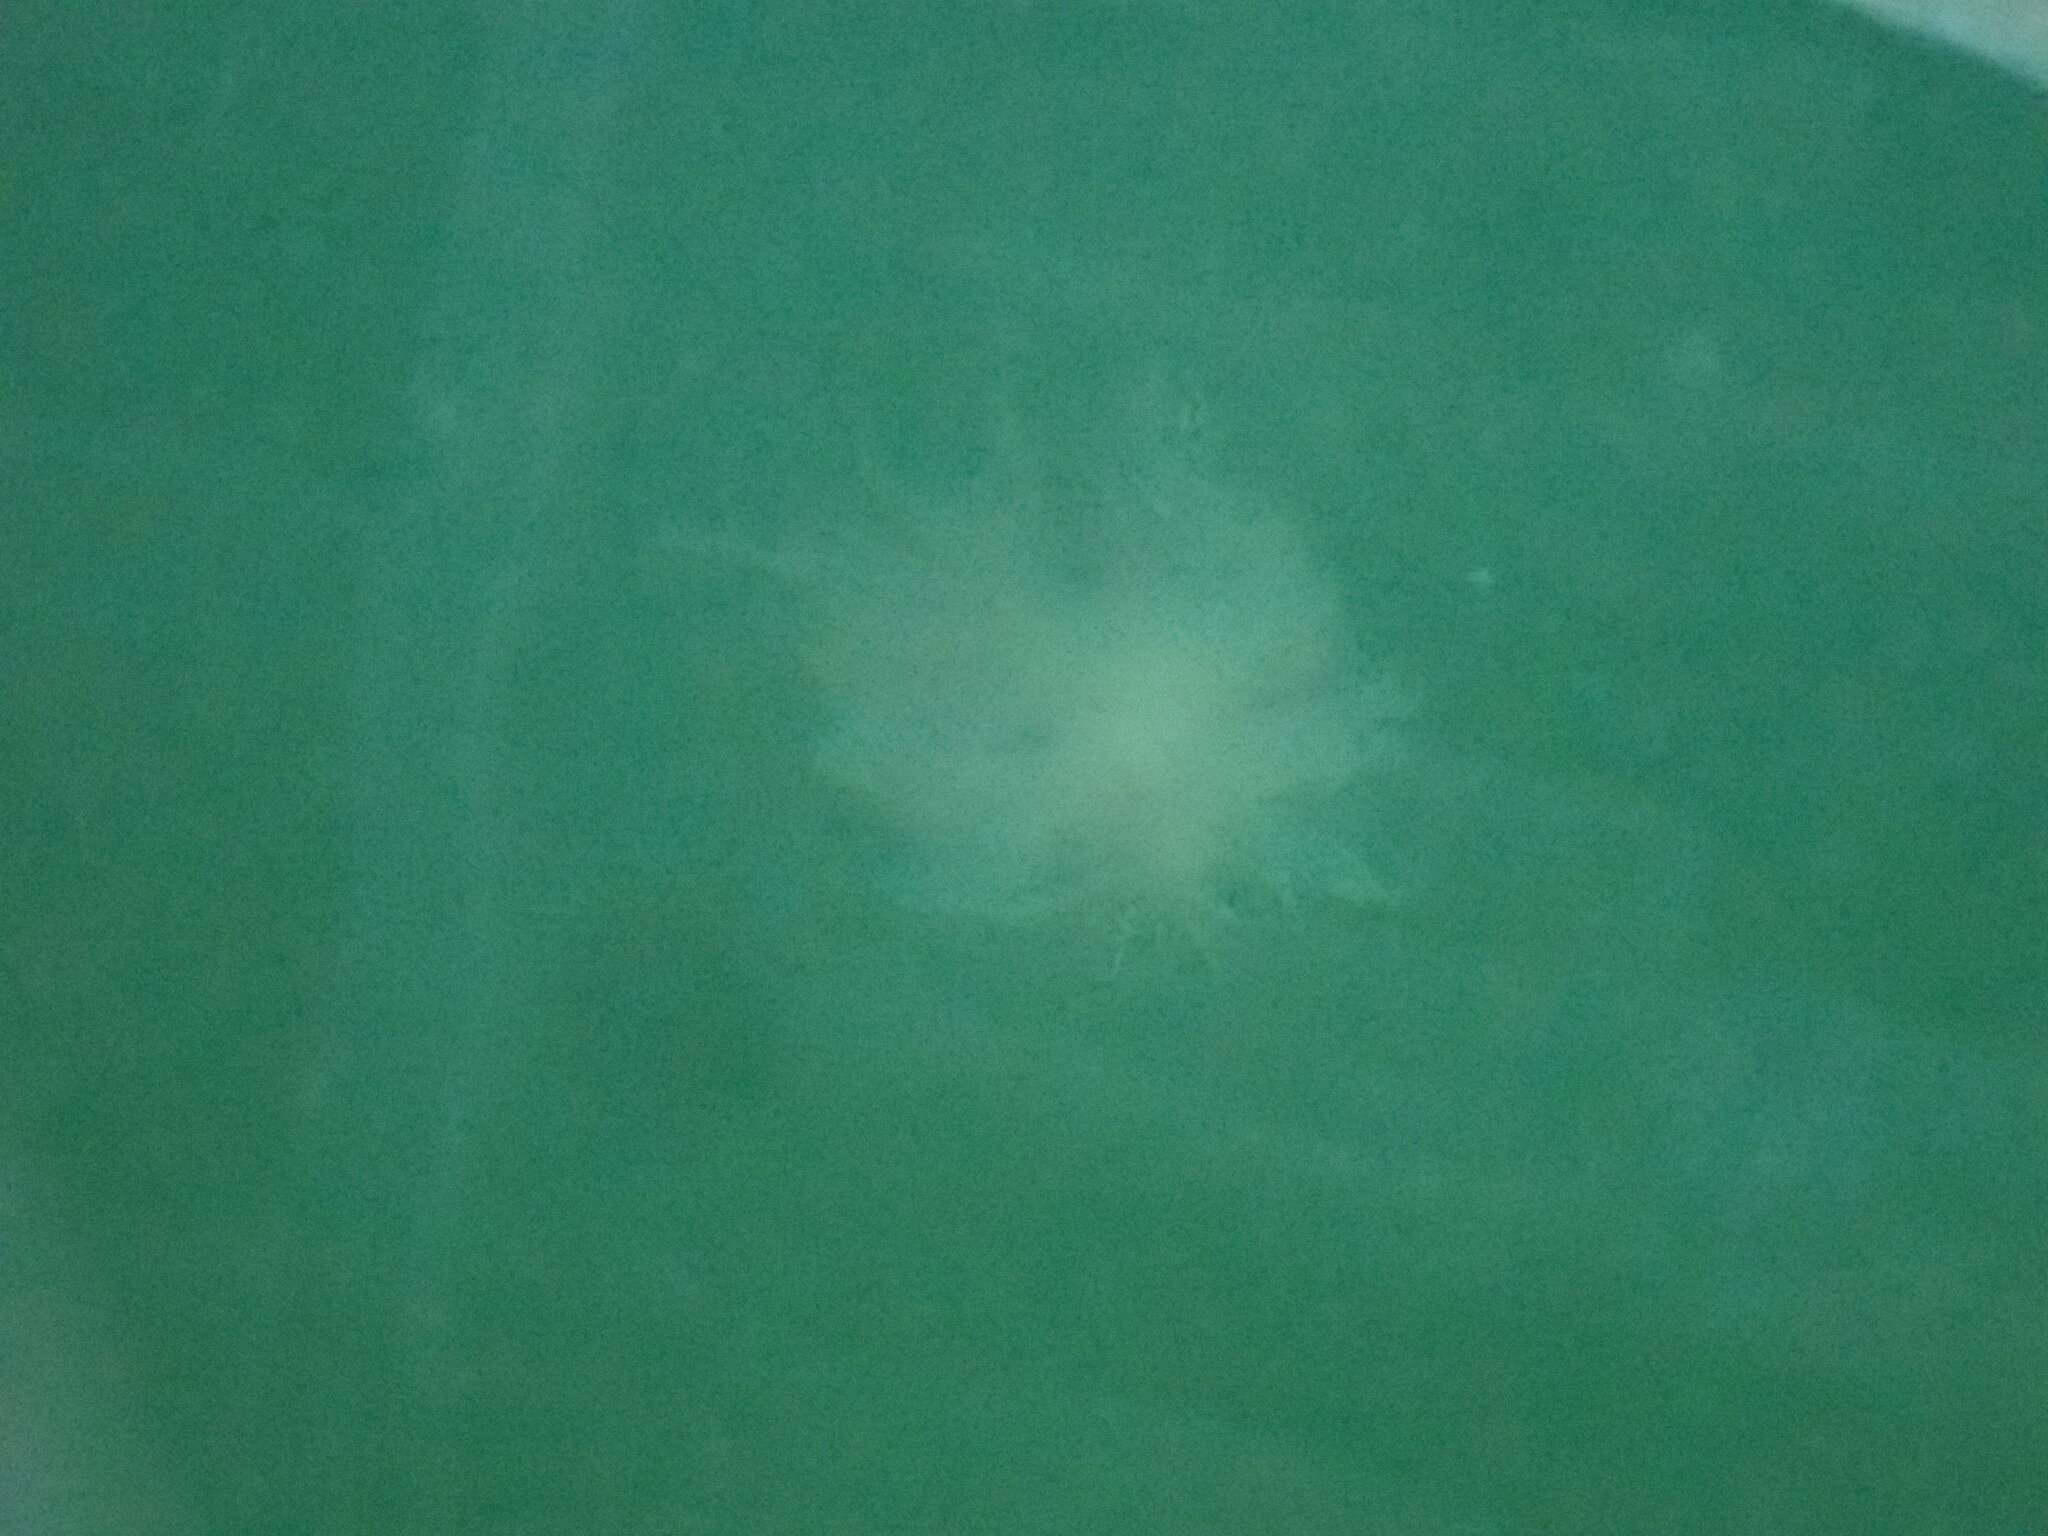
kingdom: Animalia
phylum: Mollusca
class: Gastropoda
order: Nudibranchia
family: Dendronotidae
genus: Dendronotus
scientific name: Dendronotus iris
